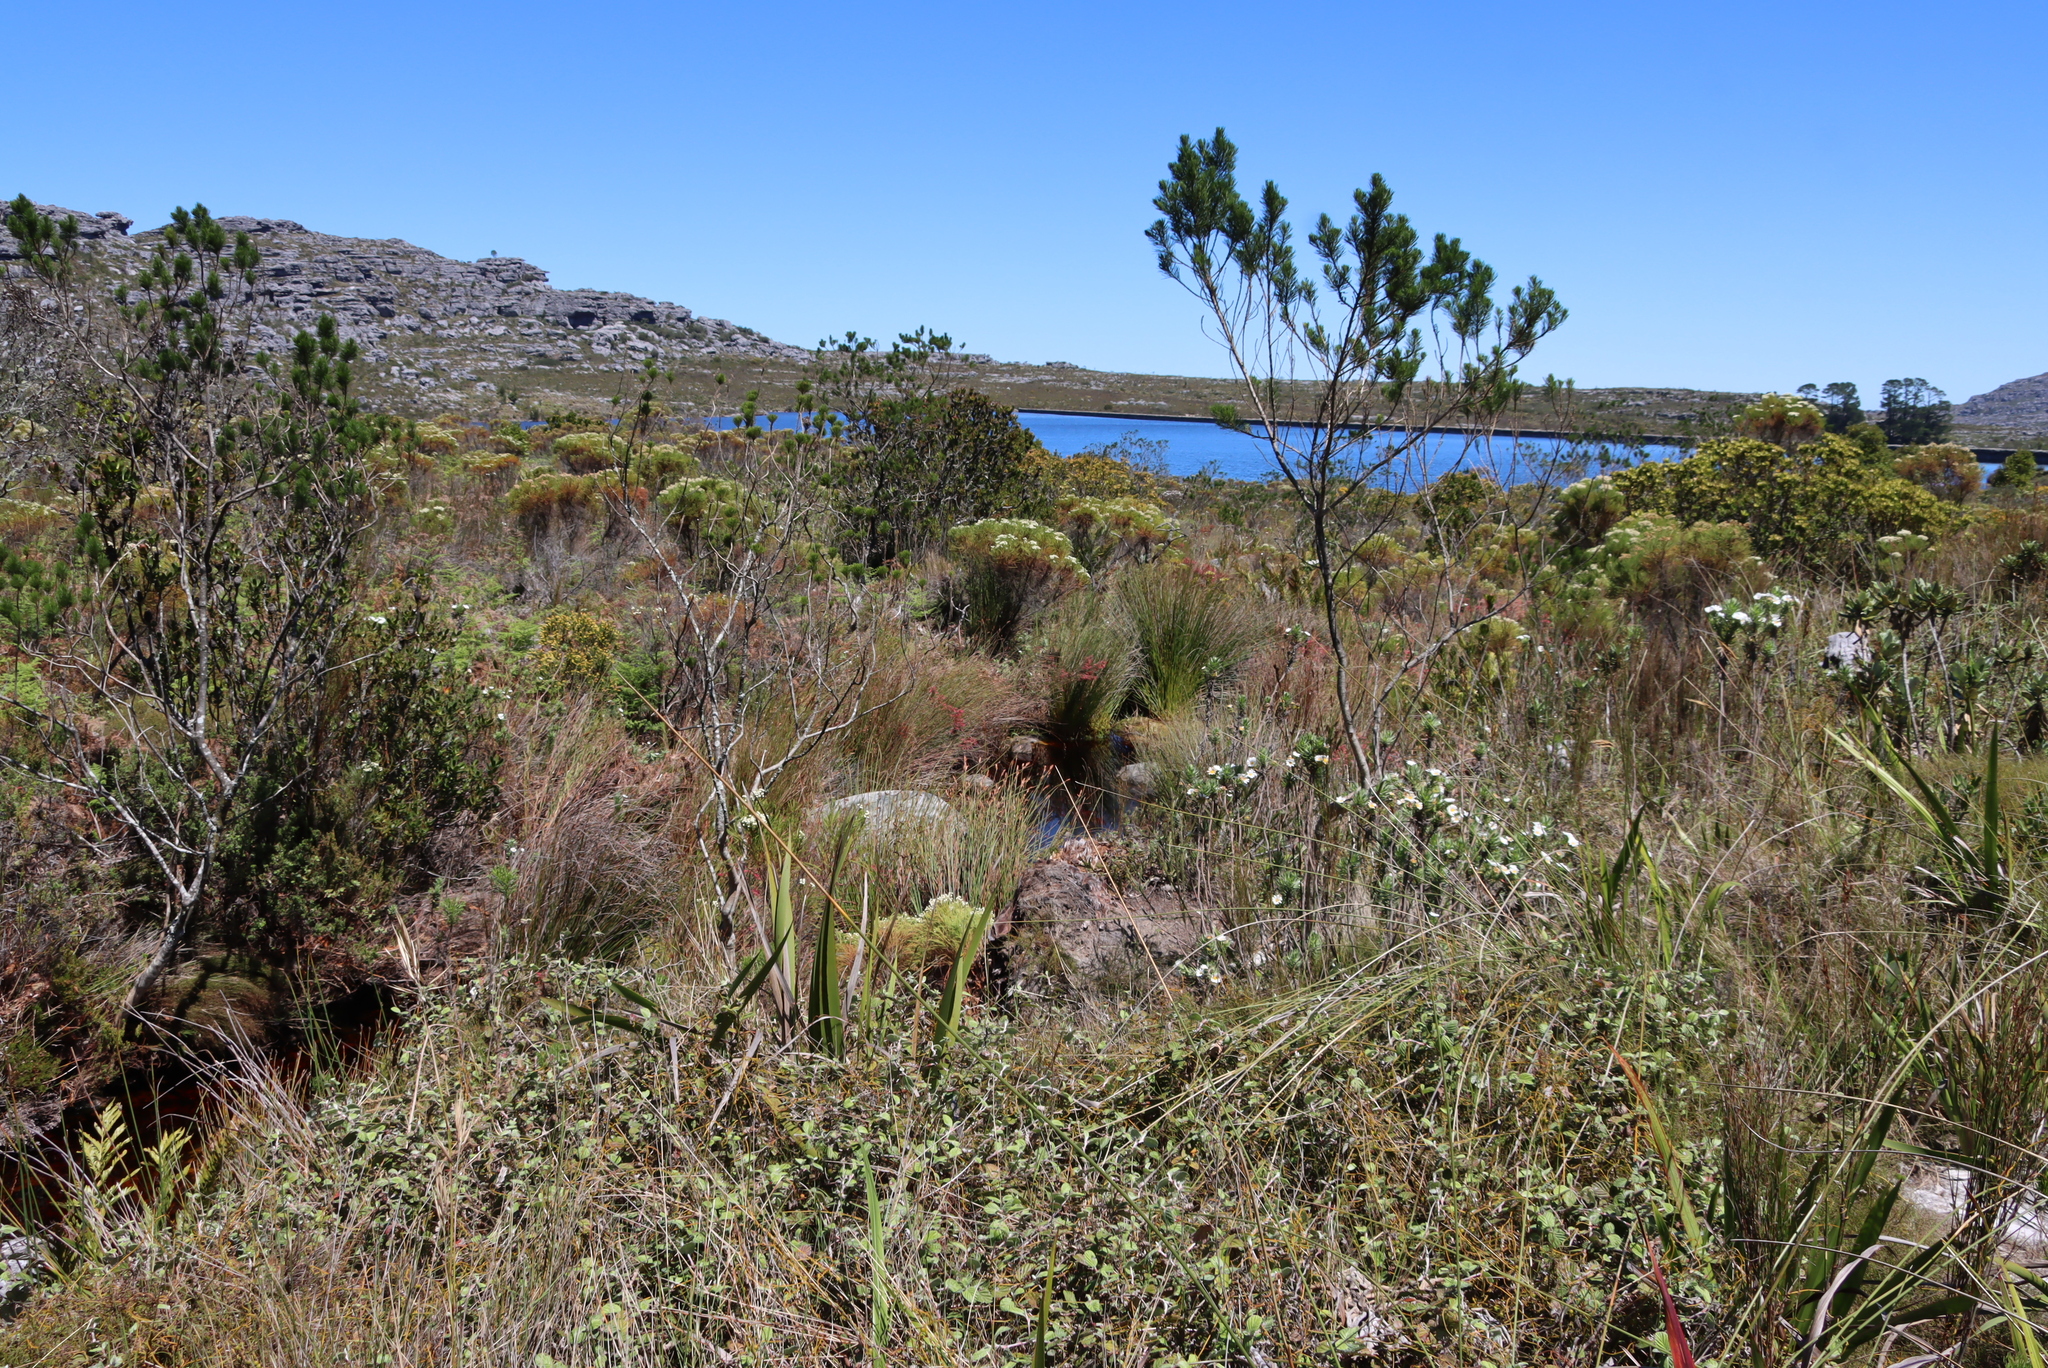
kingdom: Plantae
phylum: Tracheophyta
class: Magnoliopsida
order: Fabales
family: Fabaceae
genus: Psoralea
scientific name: Psoralea pinnata
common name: African scurfpea
